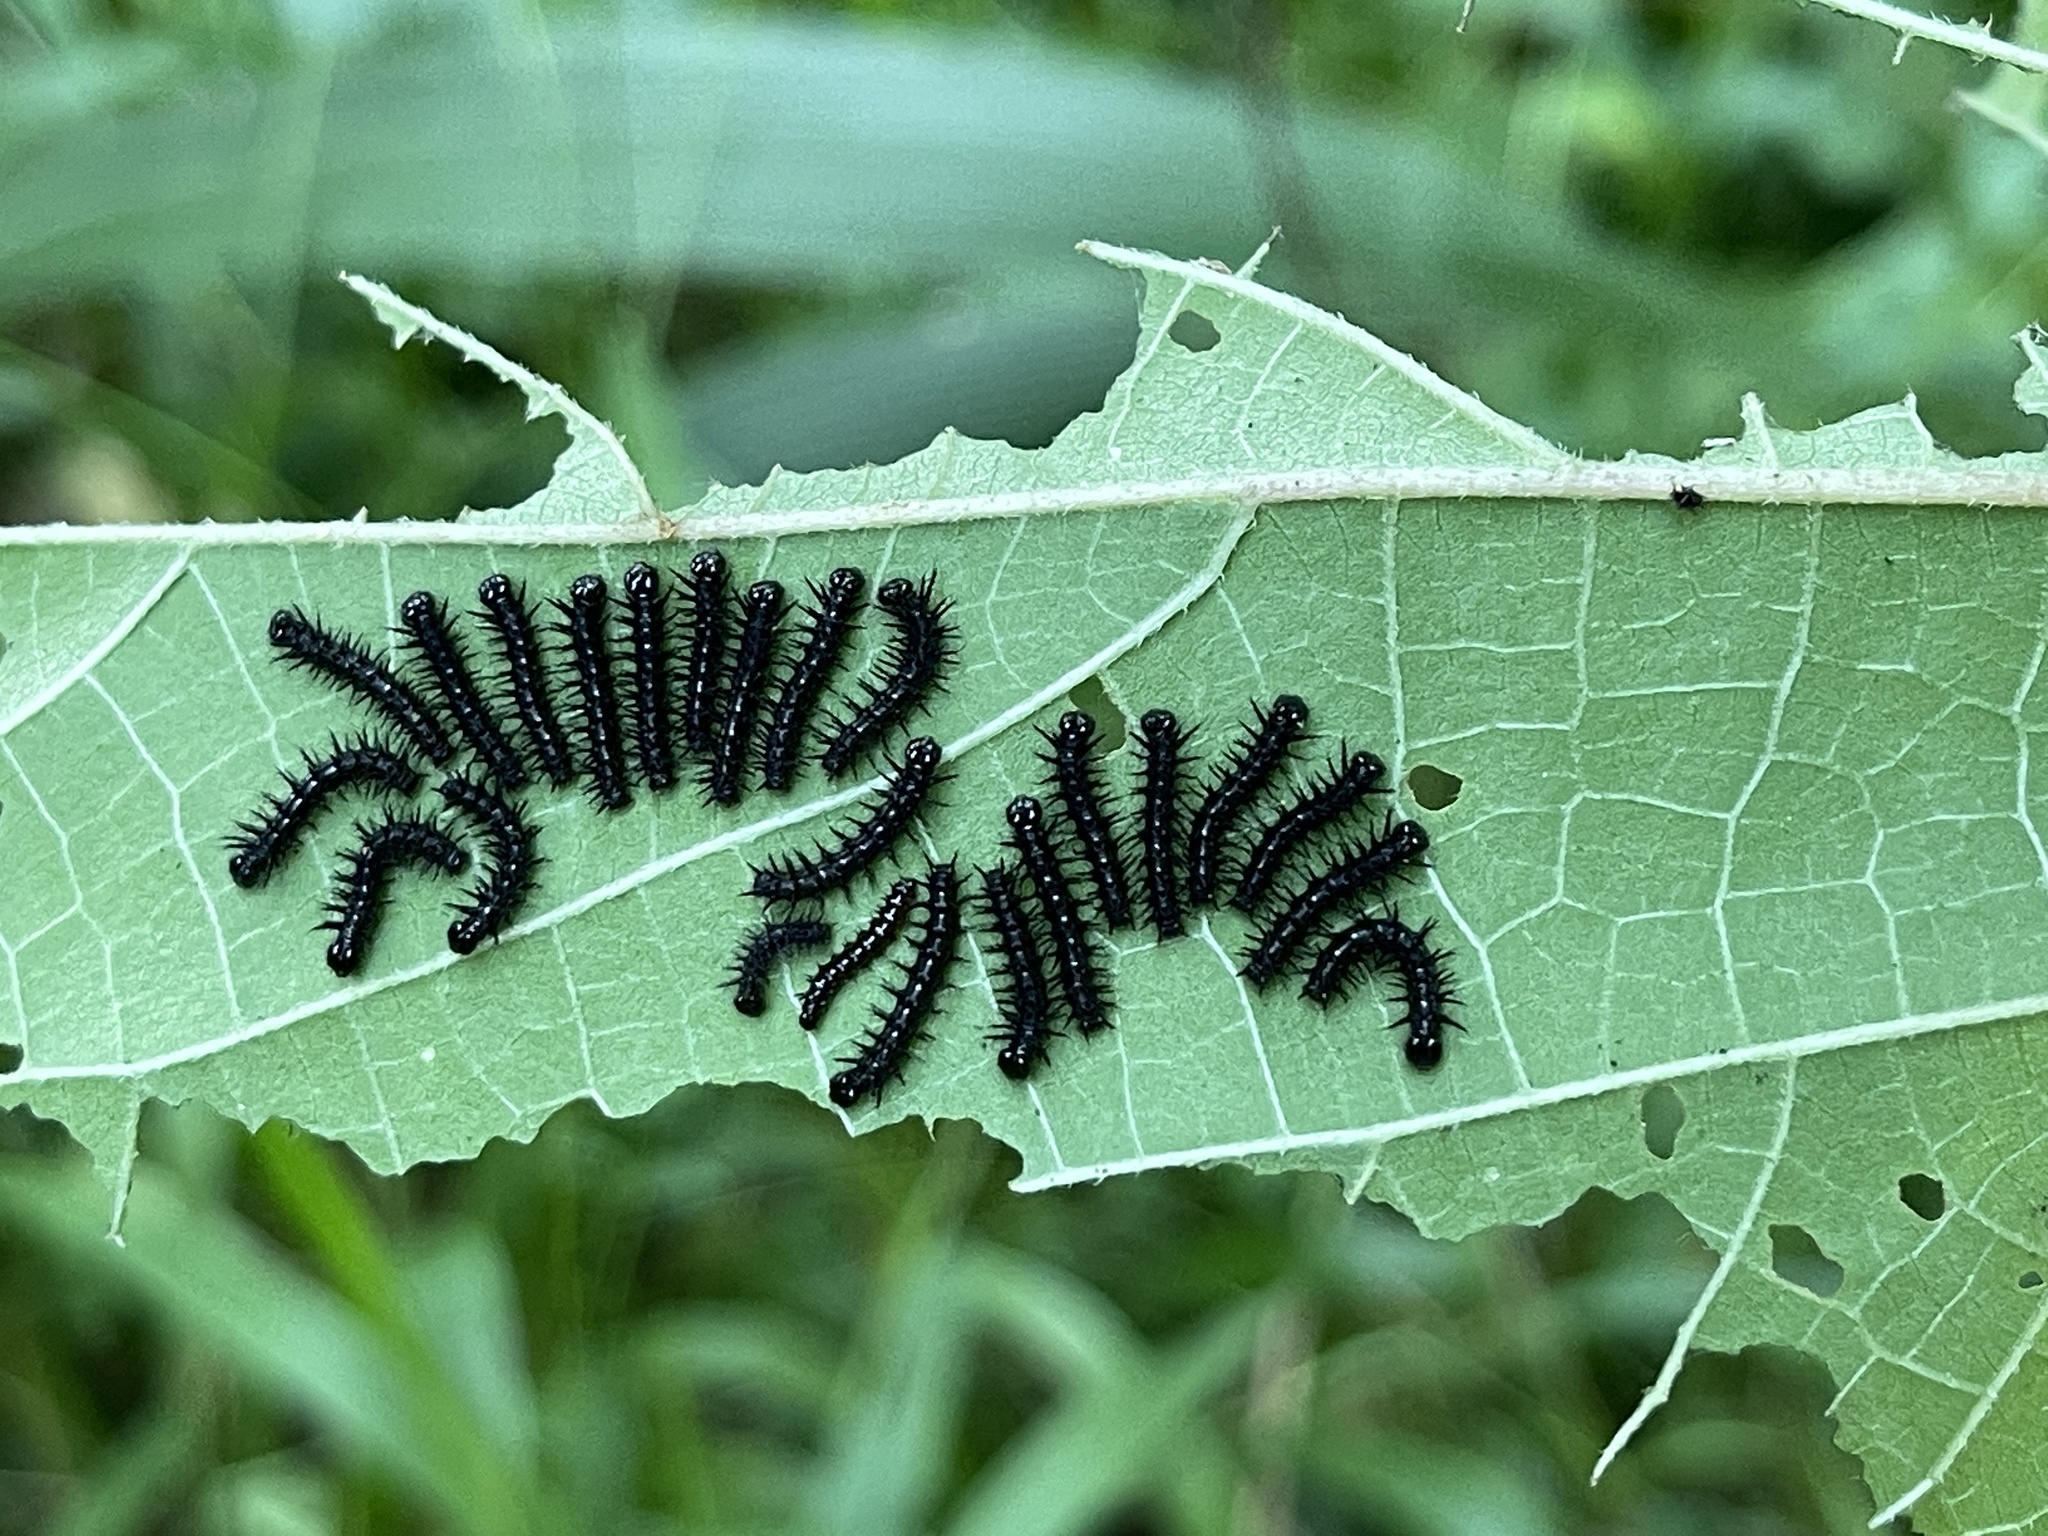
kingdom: Animalia
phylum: Arthropoda
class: Insecta
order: Lepidoptera
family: Nymphalidae
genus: Symbrenthia
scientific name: Symbrenthia hypselis
